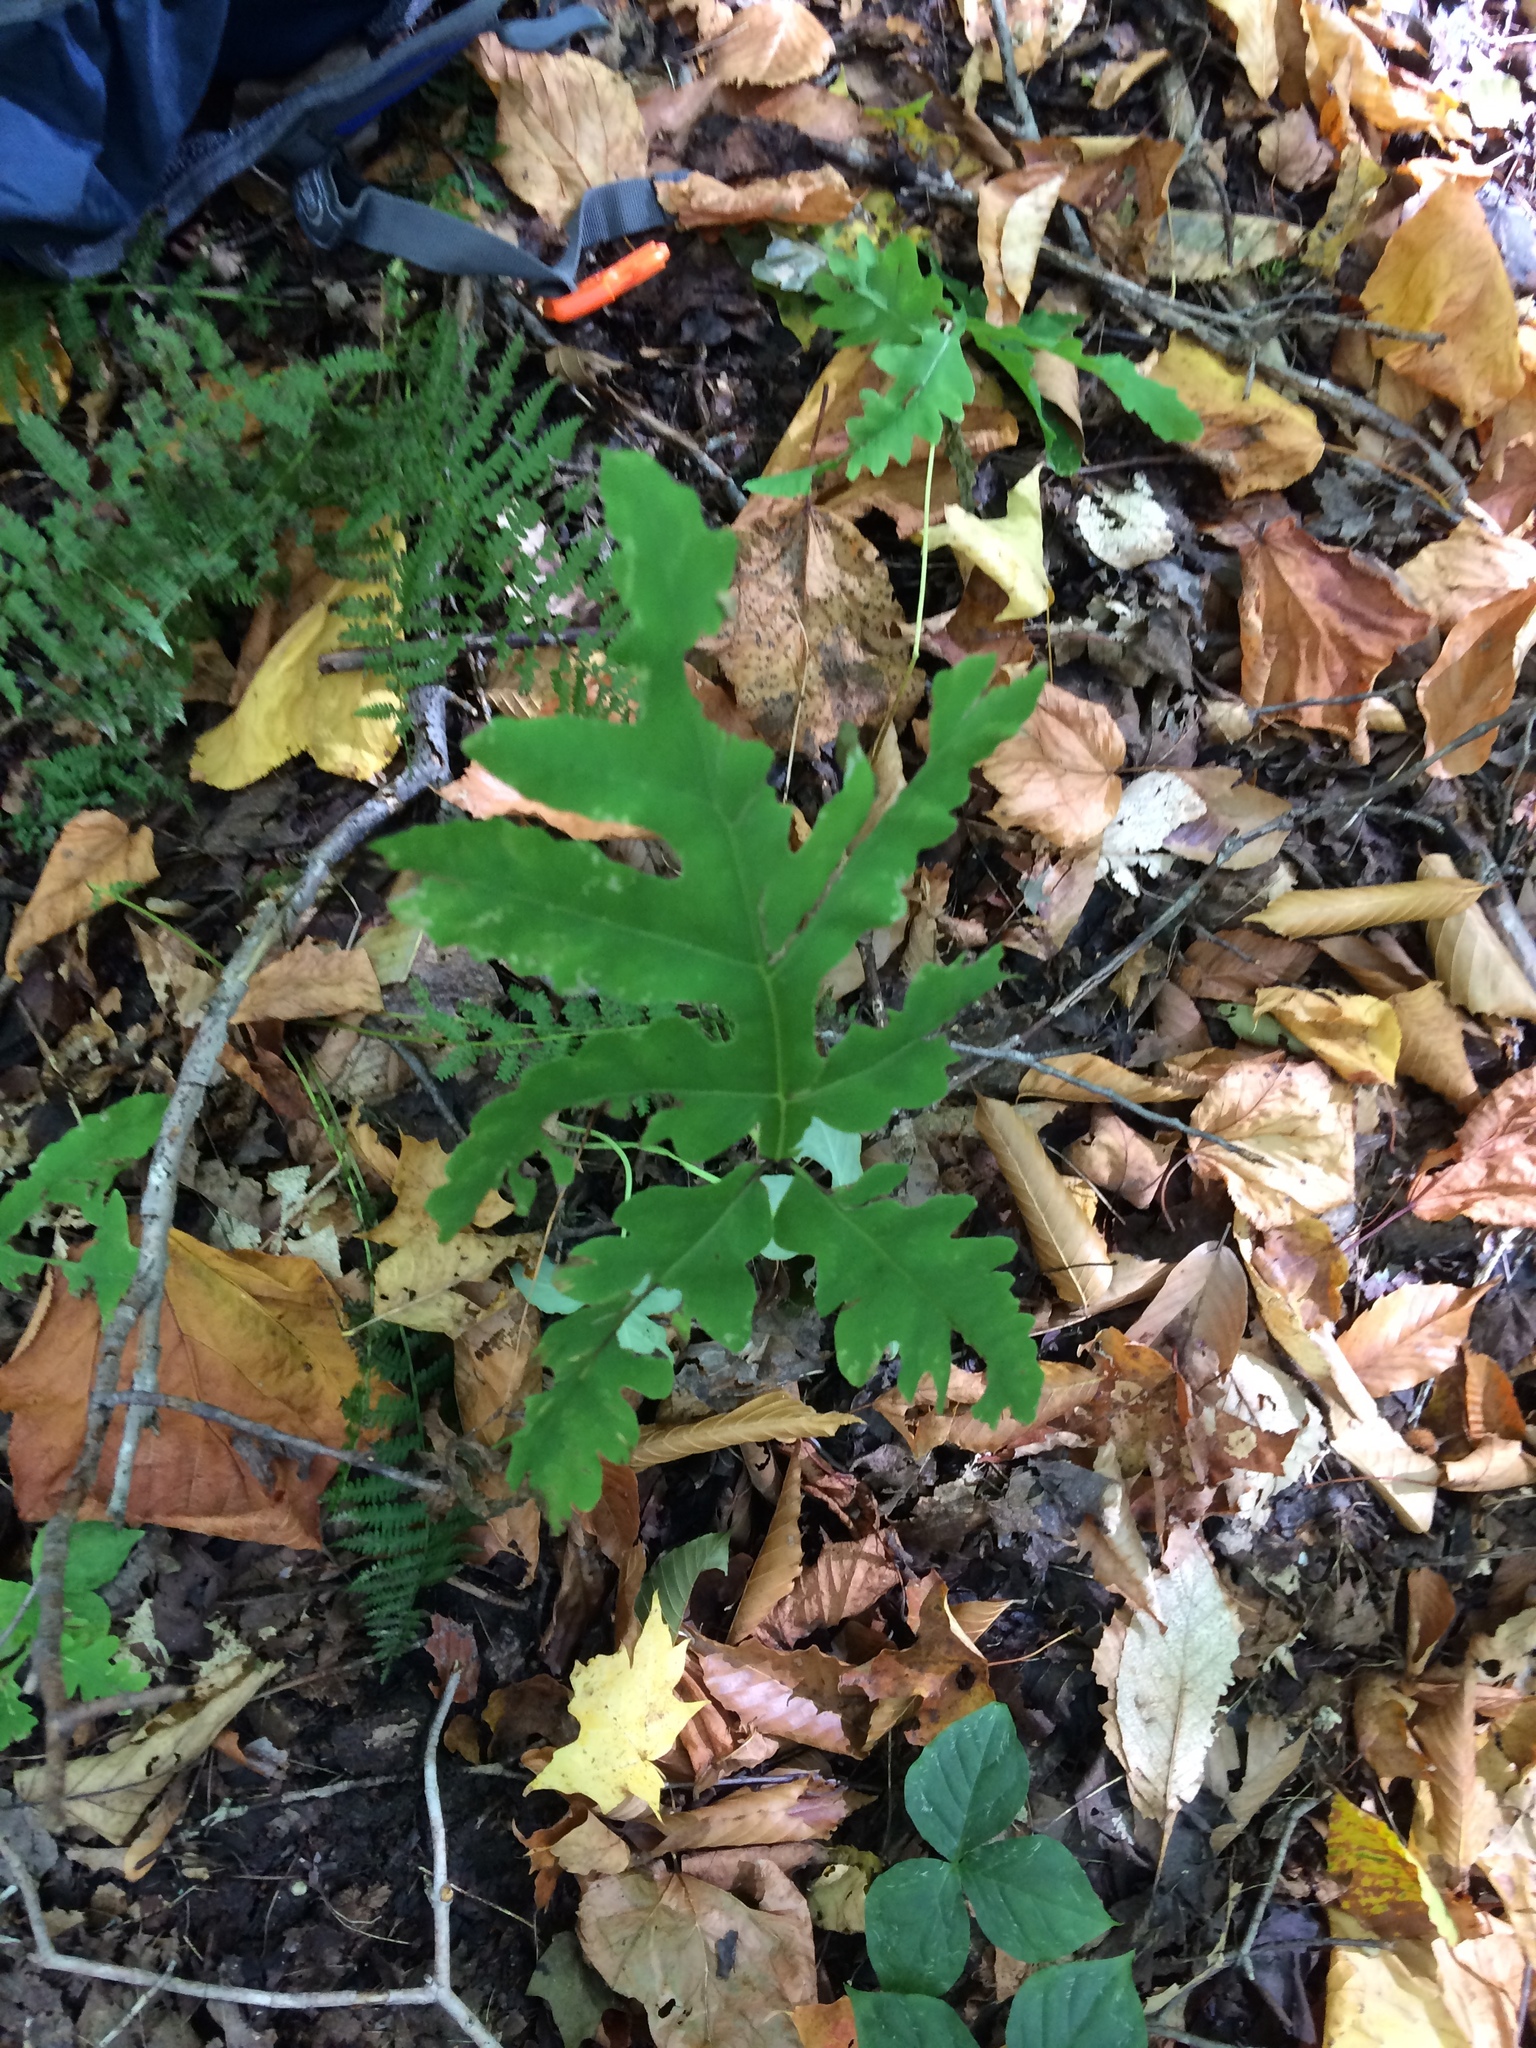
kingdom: Plantae
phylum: Tracheophyta
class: Polypodiopsida
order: Polypodiales
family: Onocleaceae
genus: Onoclea
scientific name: Onoclea sensibilis
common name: Sensitive fern
